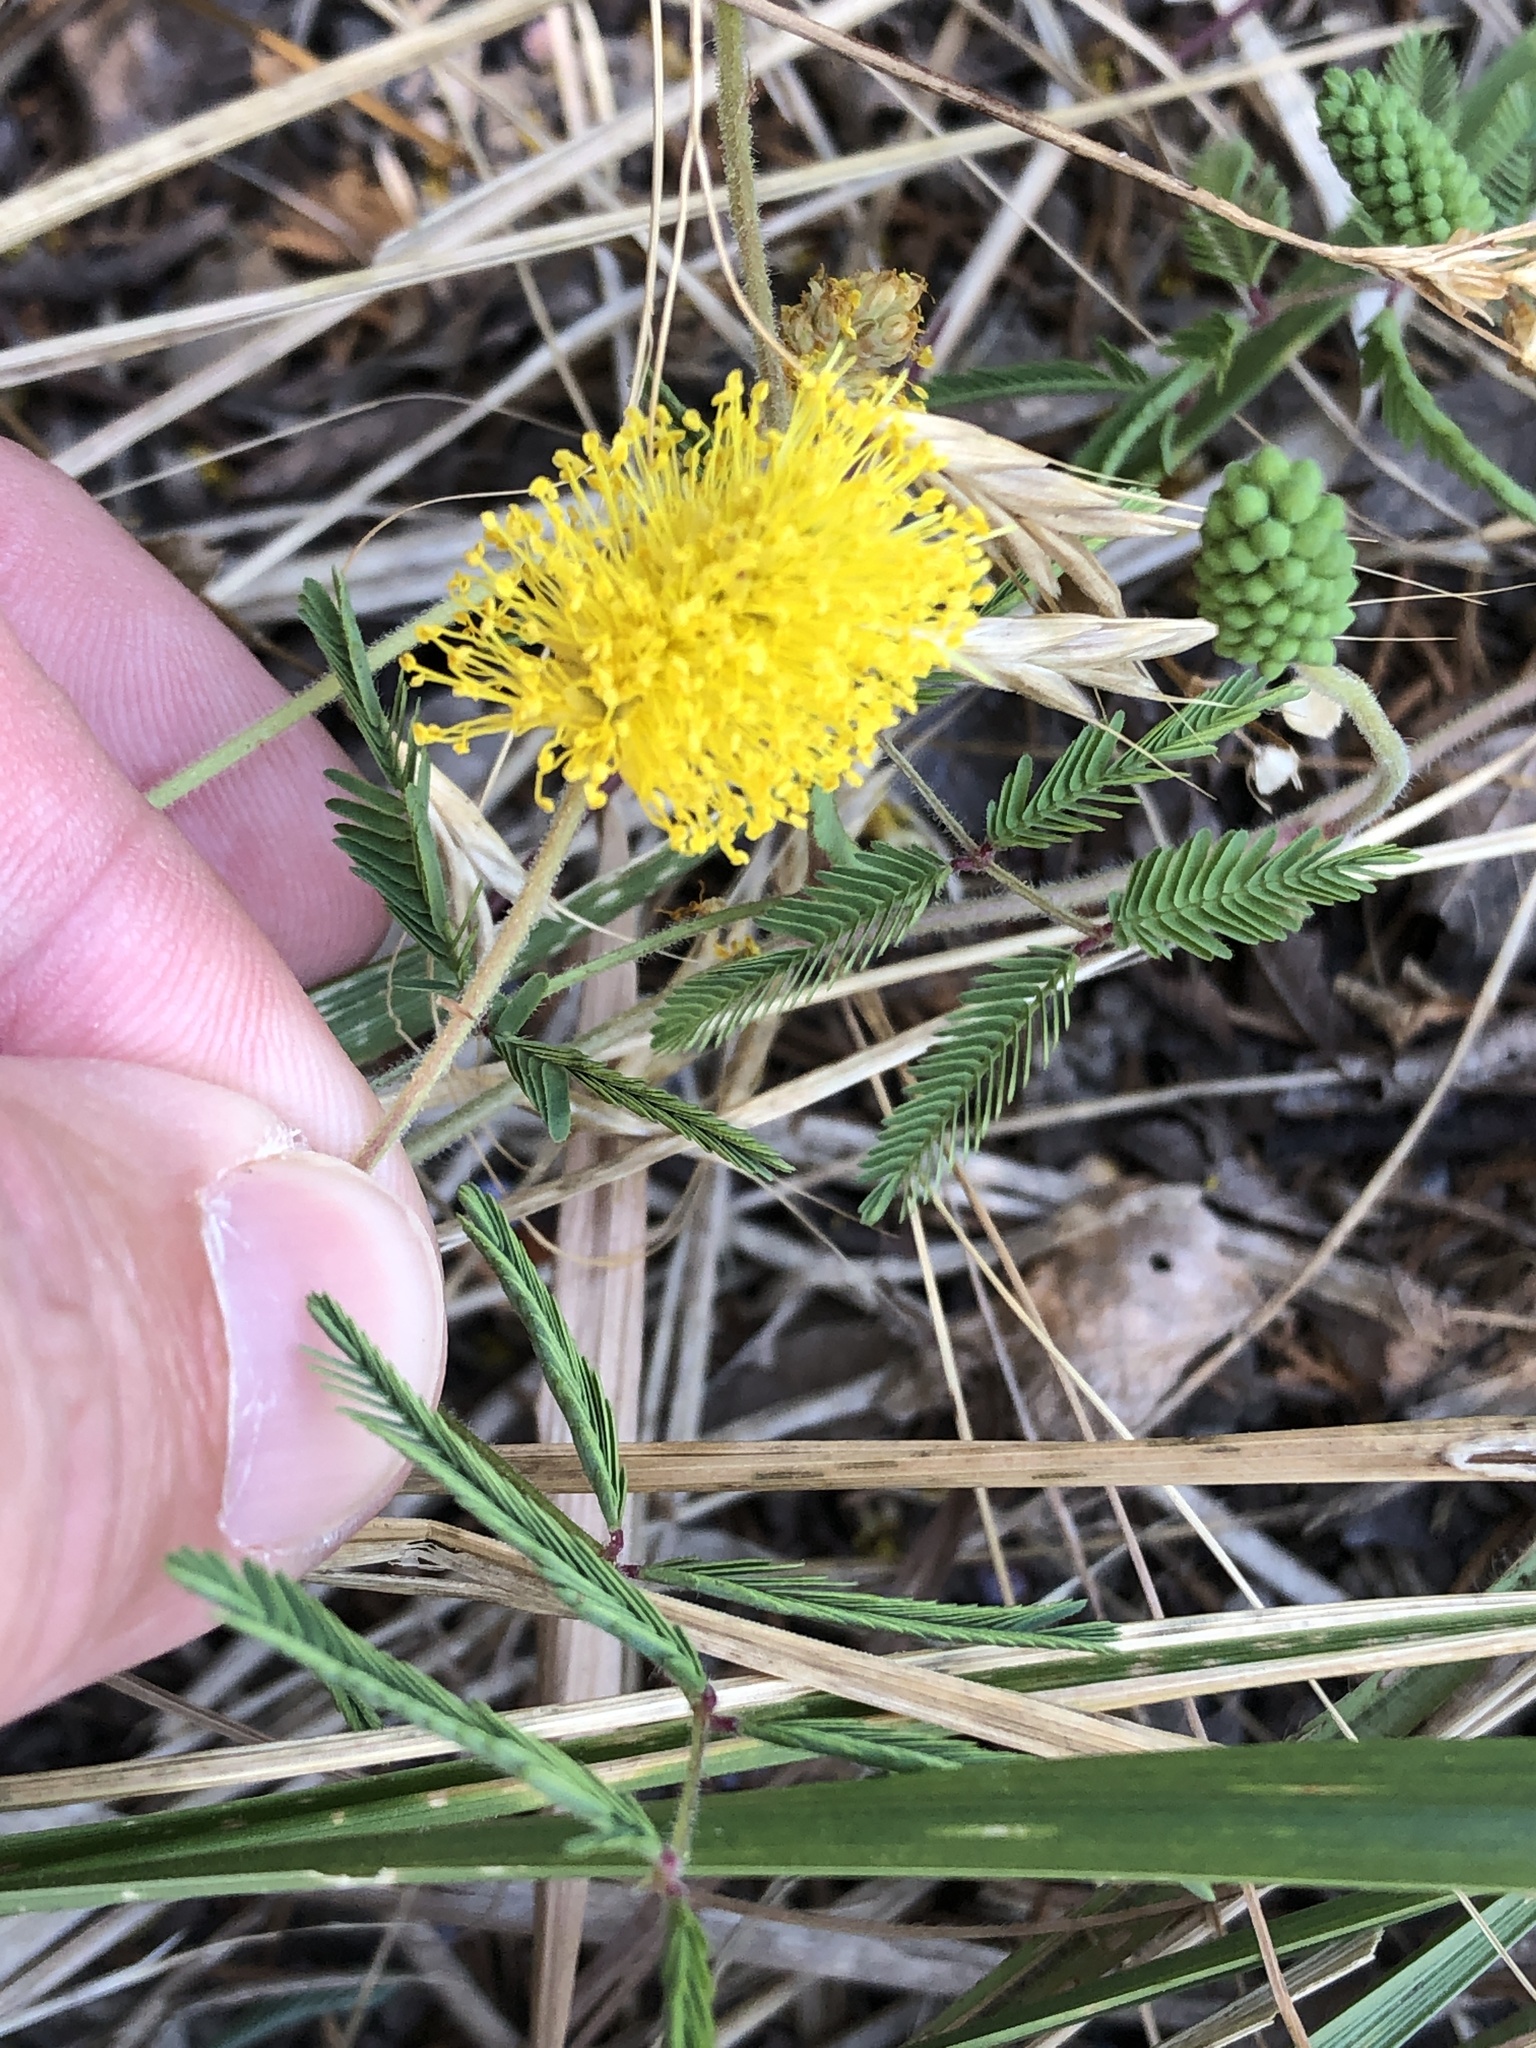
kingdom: Plantae
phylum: Tracheophyta
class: Magnoliopsida
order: Fabales
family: Fabaceae
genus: Neptunia
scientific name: Neptunia lutea
